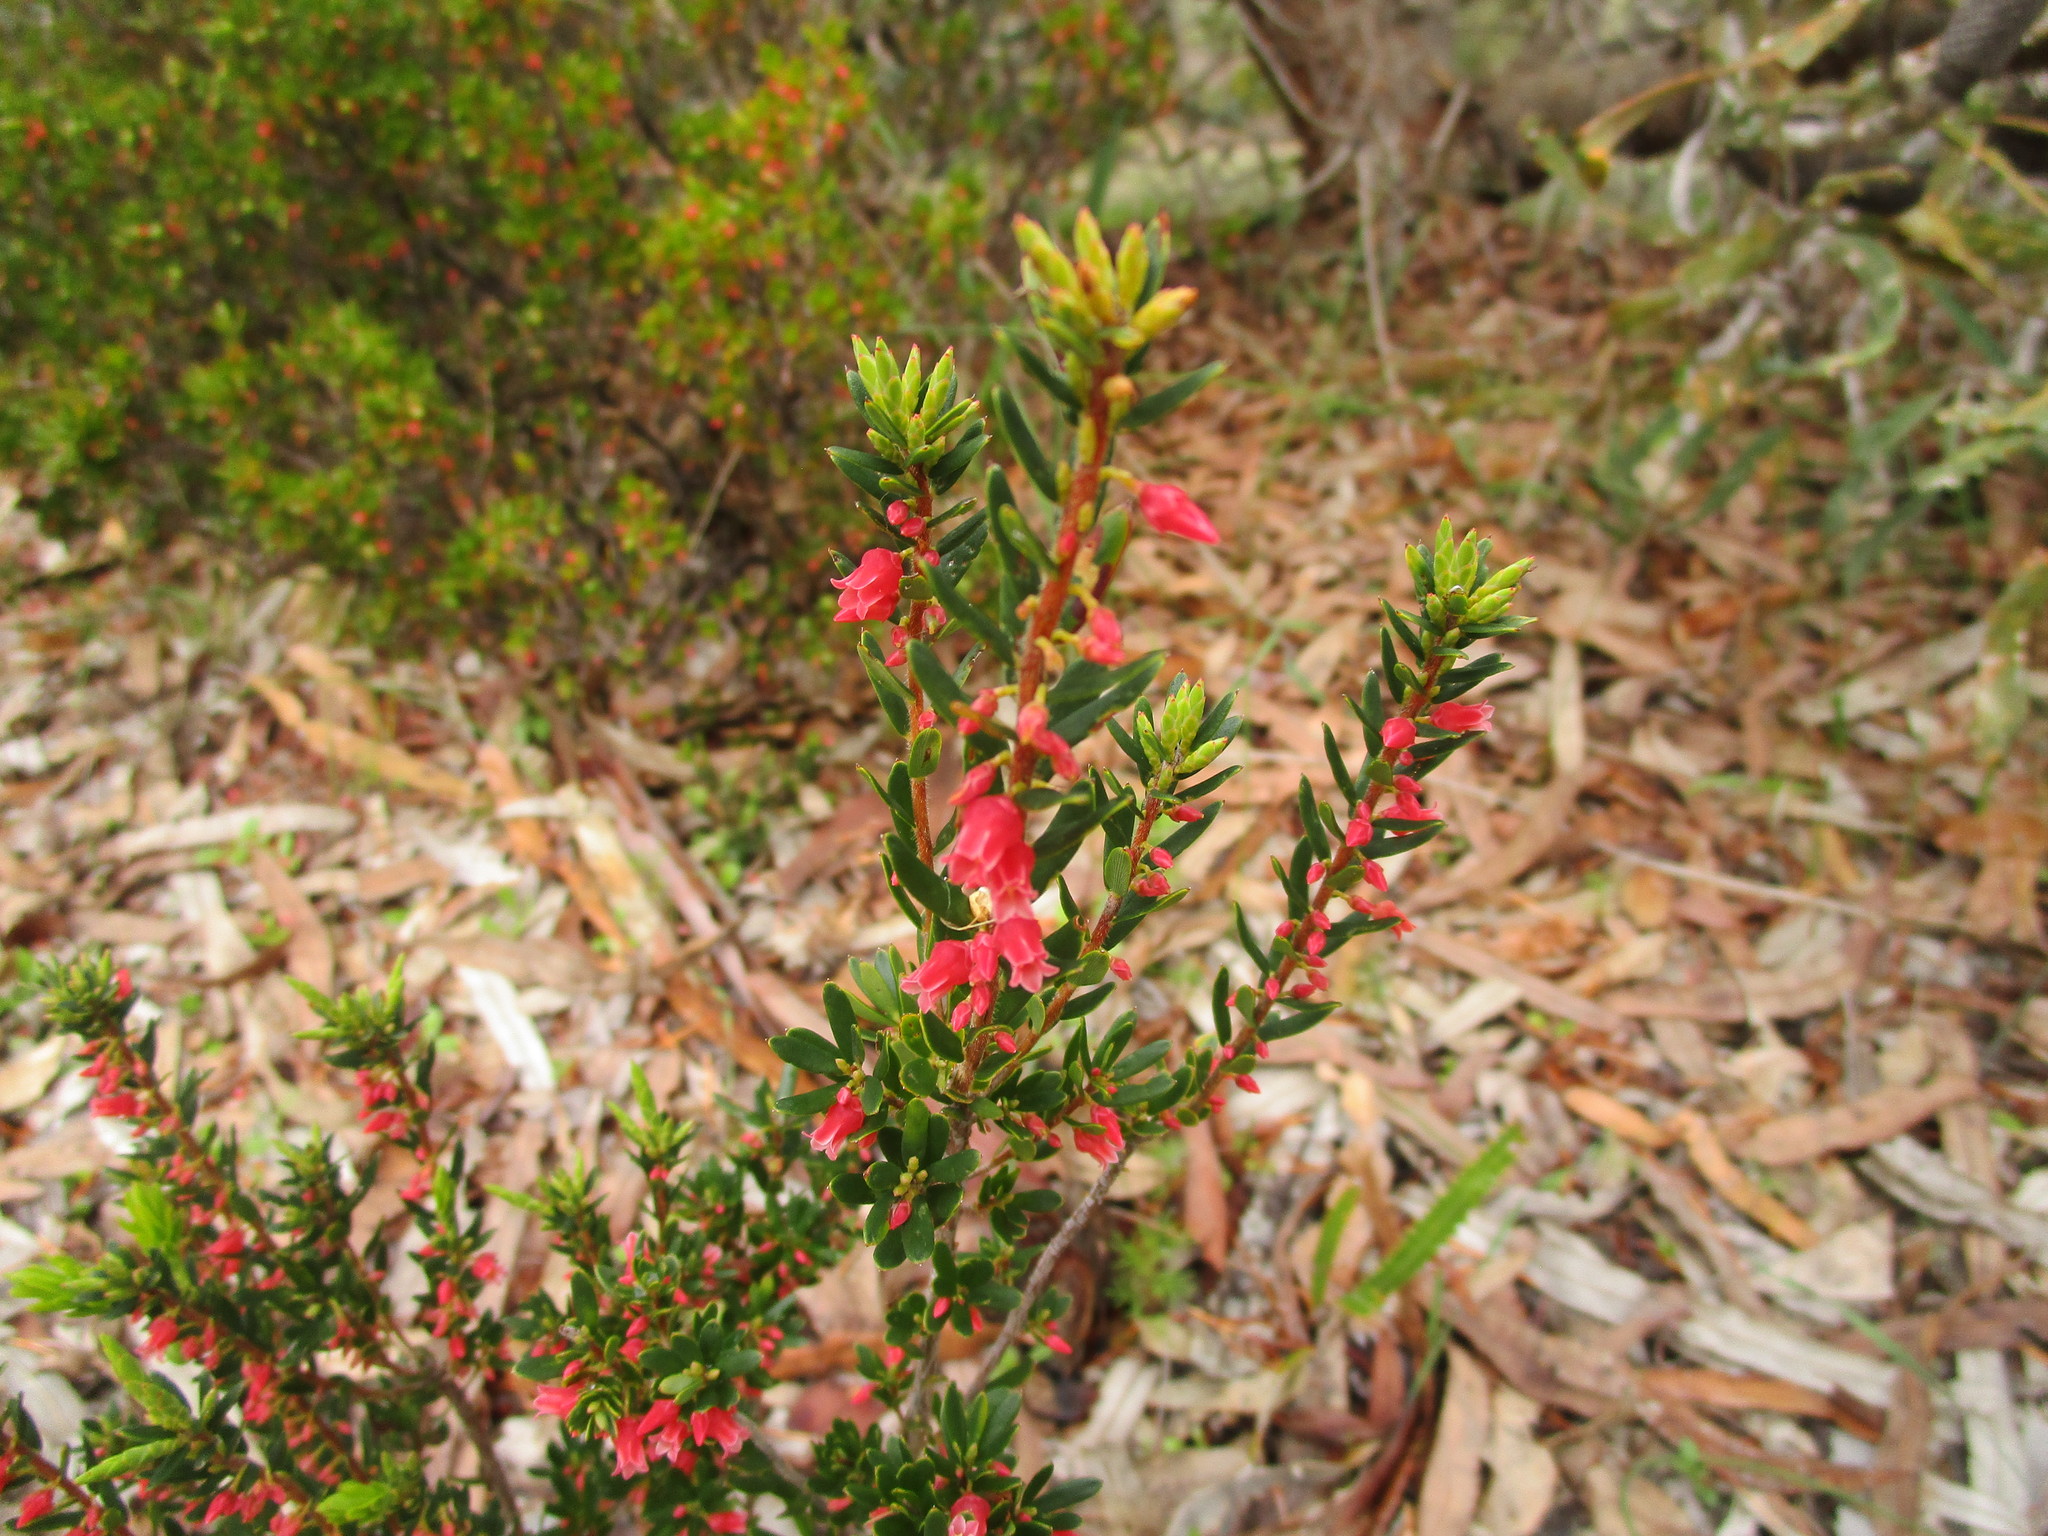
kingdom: Plantae
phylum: Tracheophyta
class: Magnoliopsida
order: Ericales
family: Ericaceae
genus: Brachyloma
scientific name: Brachyloma preissii
